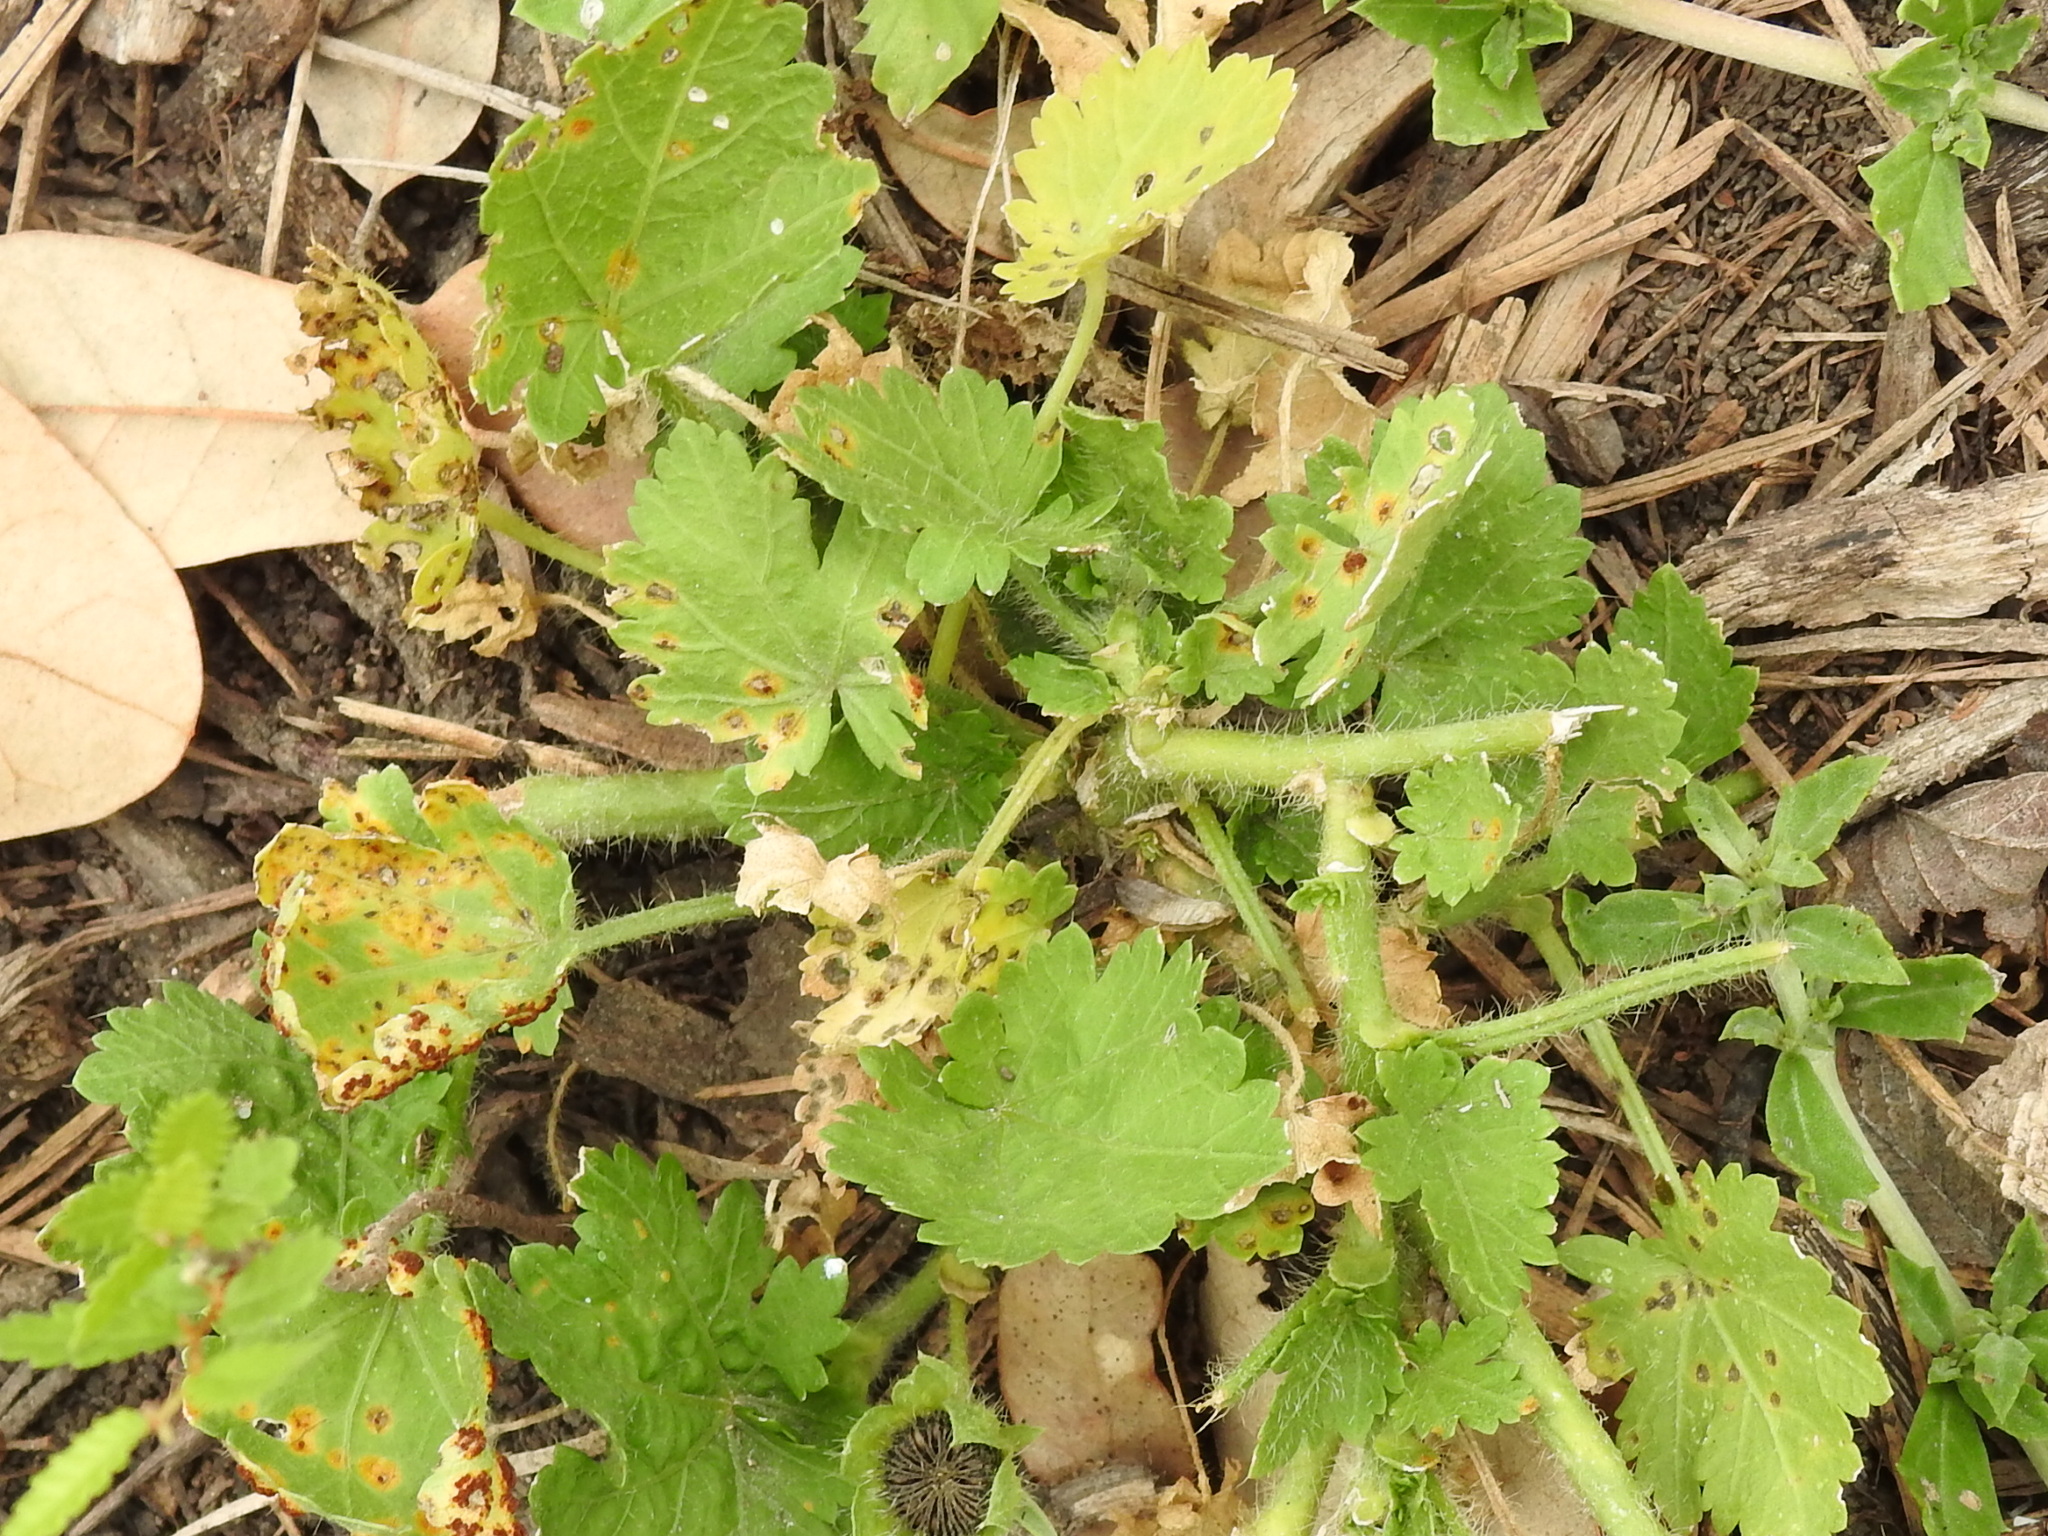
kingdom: Fungi
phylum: Basidiomycota
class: Pucciniomycetes
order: Pucciniales
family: Pucciniaceae
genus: Puccinia
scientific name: Puccinia modiolae
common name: Rust of bristlemallow
